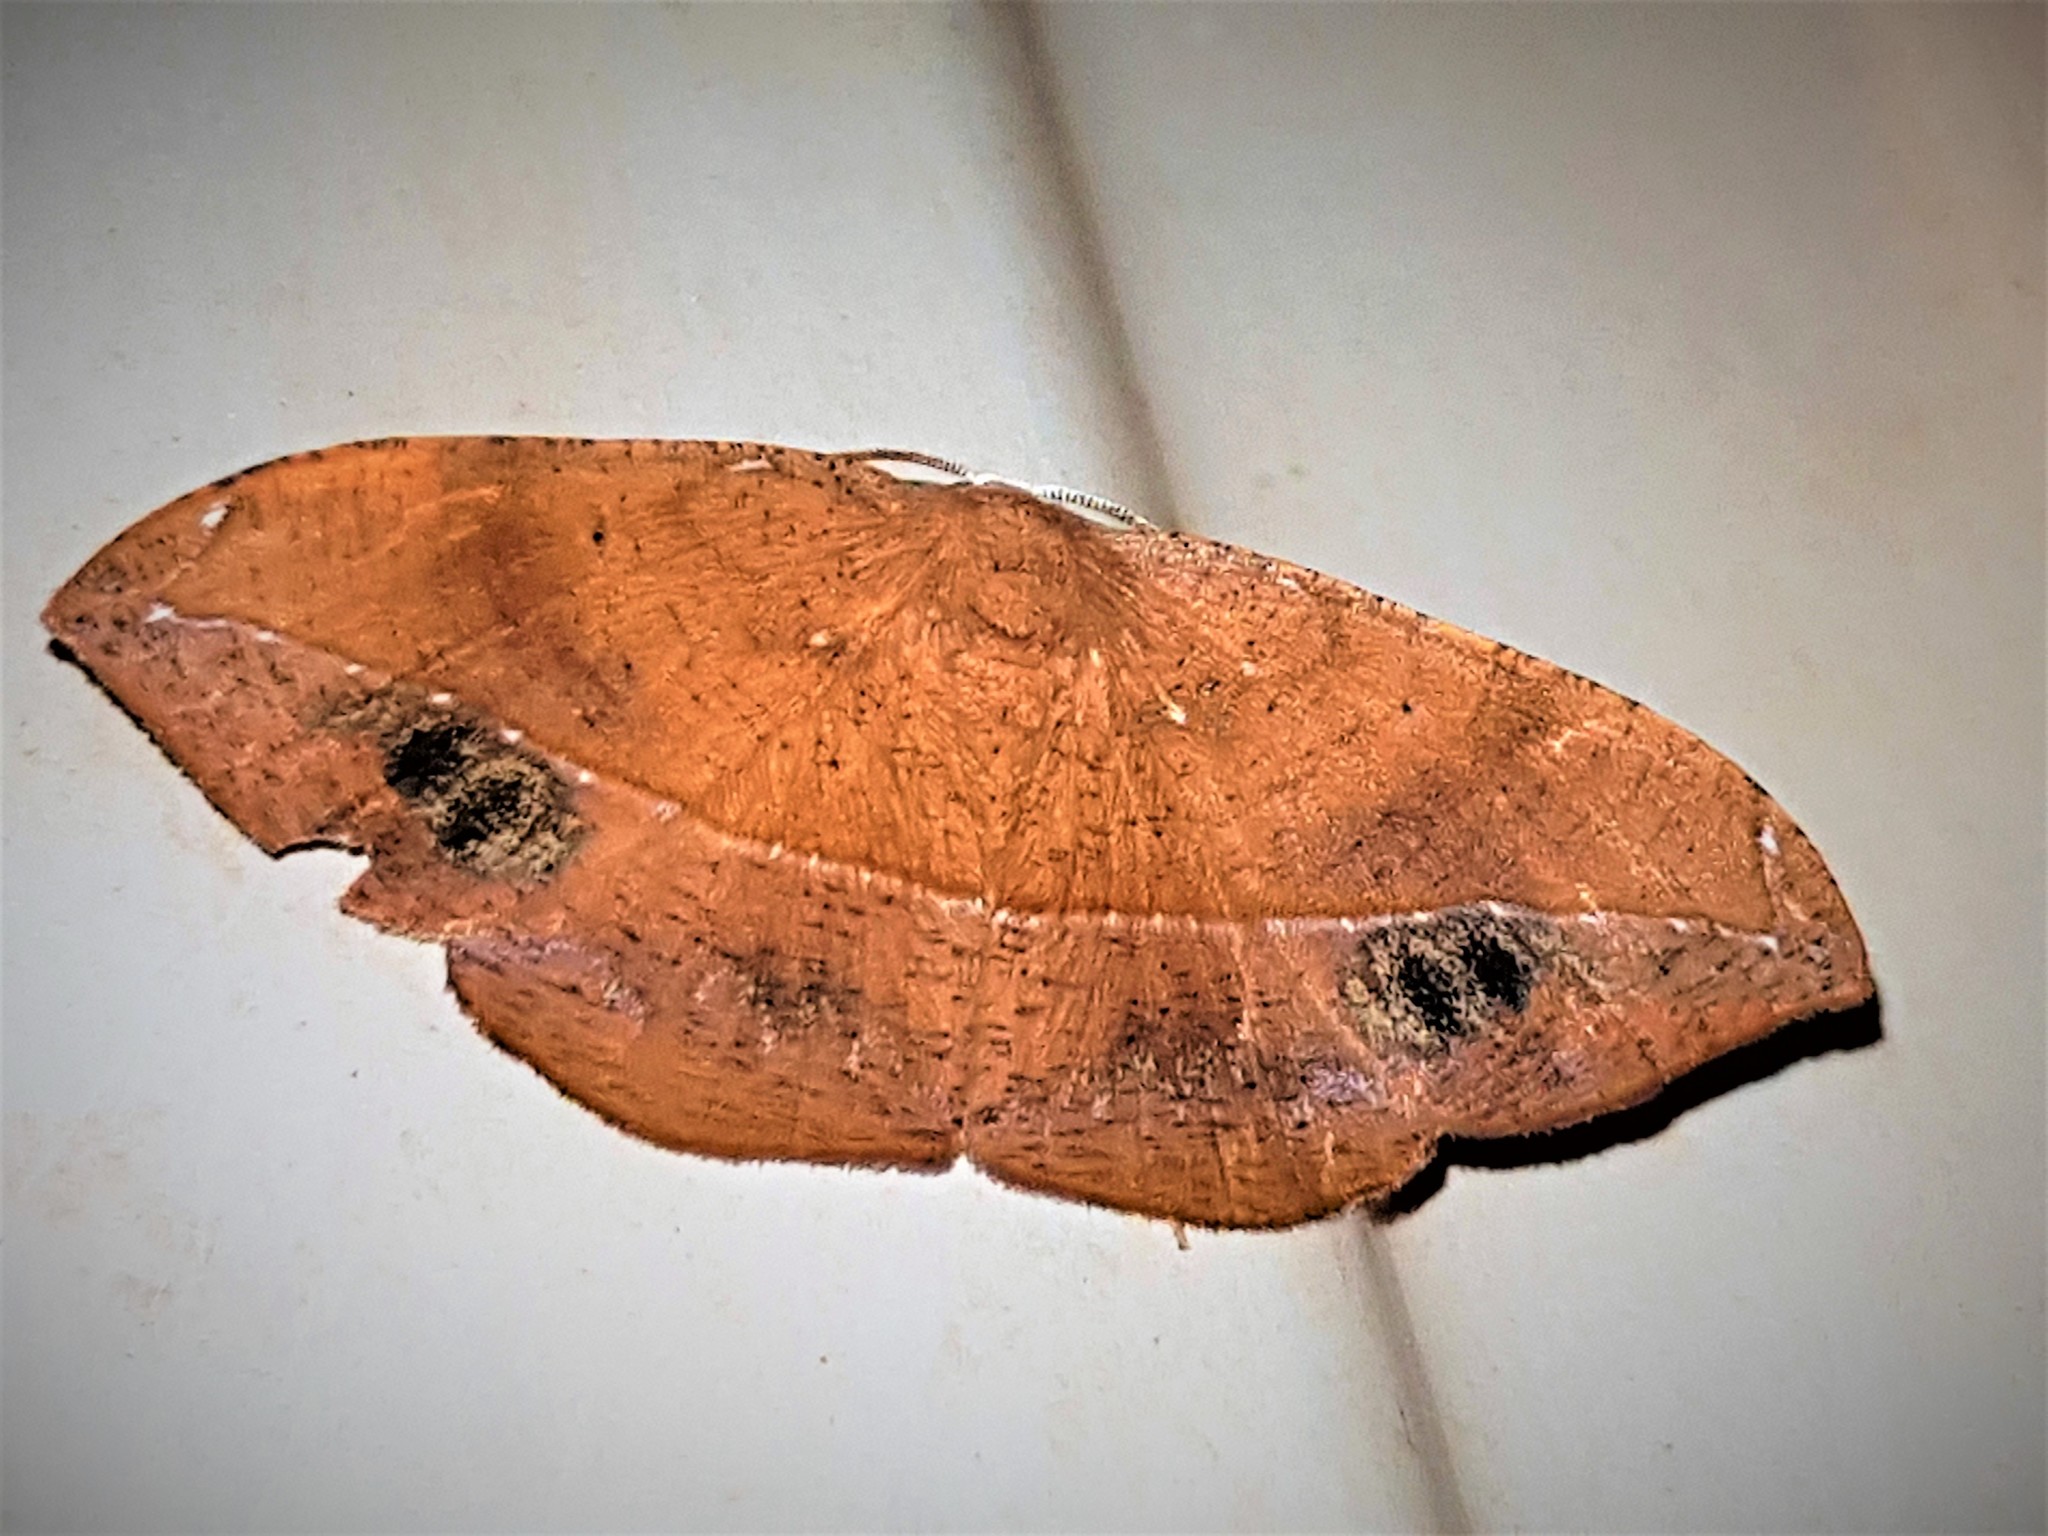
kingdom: Animalia
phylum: Arthropoda
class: Insecta
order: Lepidoptera
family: Geometridae
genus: Patalene
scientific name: Patalene hamulata
